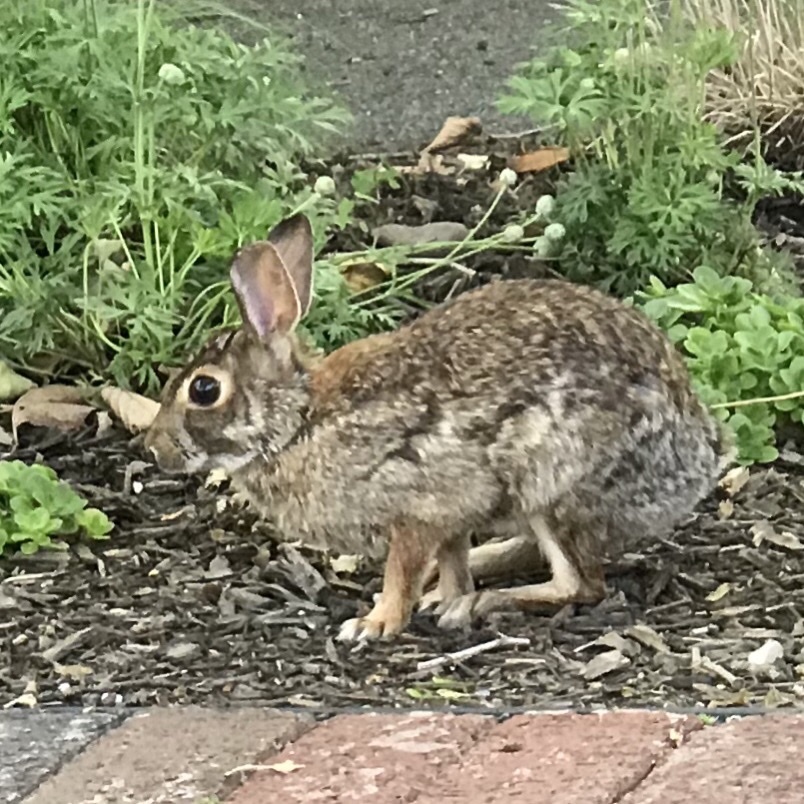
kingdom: Animalia
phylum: Chordata
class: Mammalia
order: Lagomorpha
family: Leporidae
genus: Sylvilagus
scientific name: Sylvilagus floridanus
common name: Eastern cottontail
